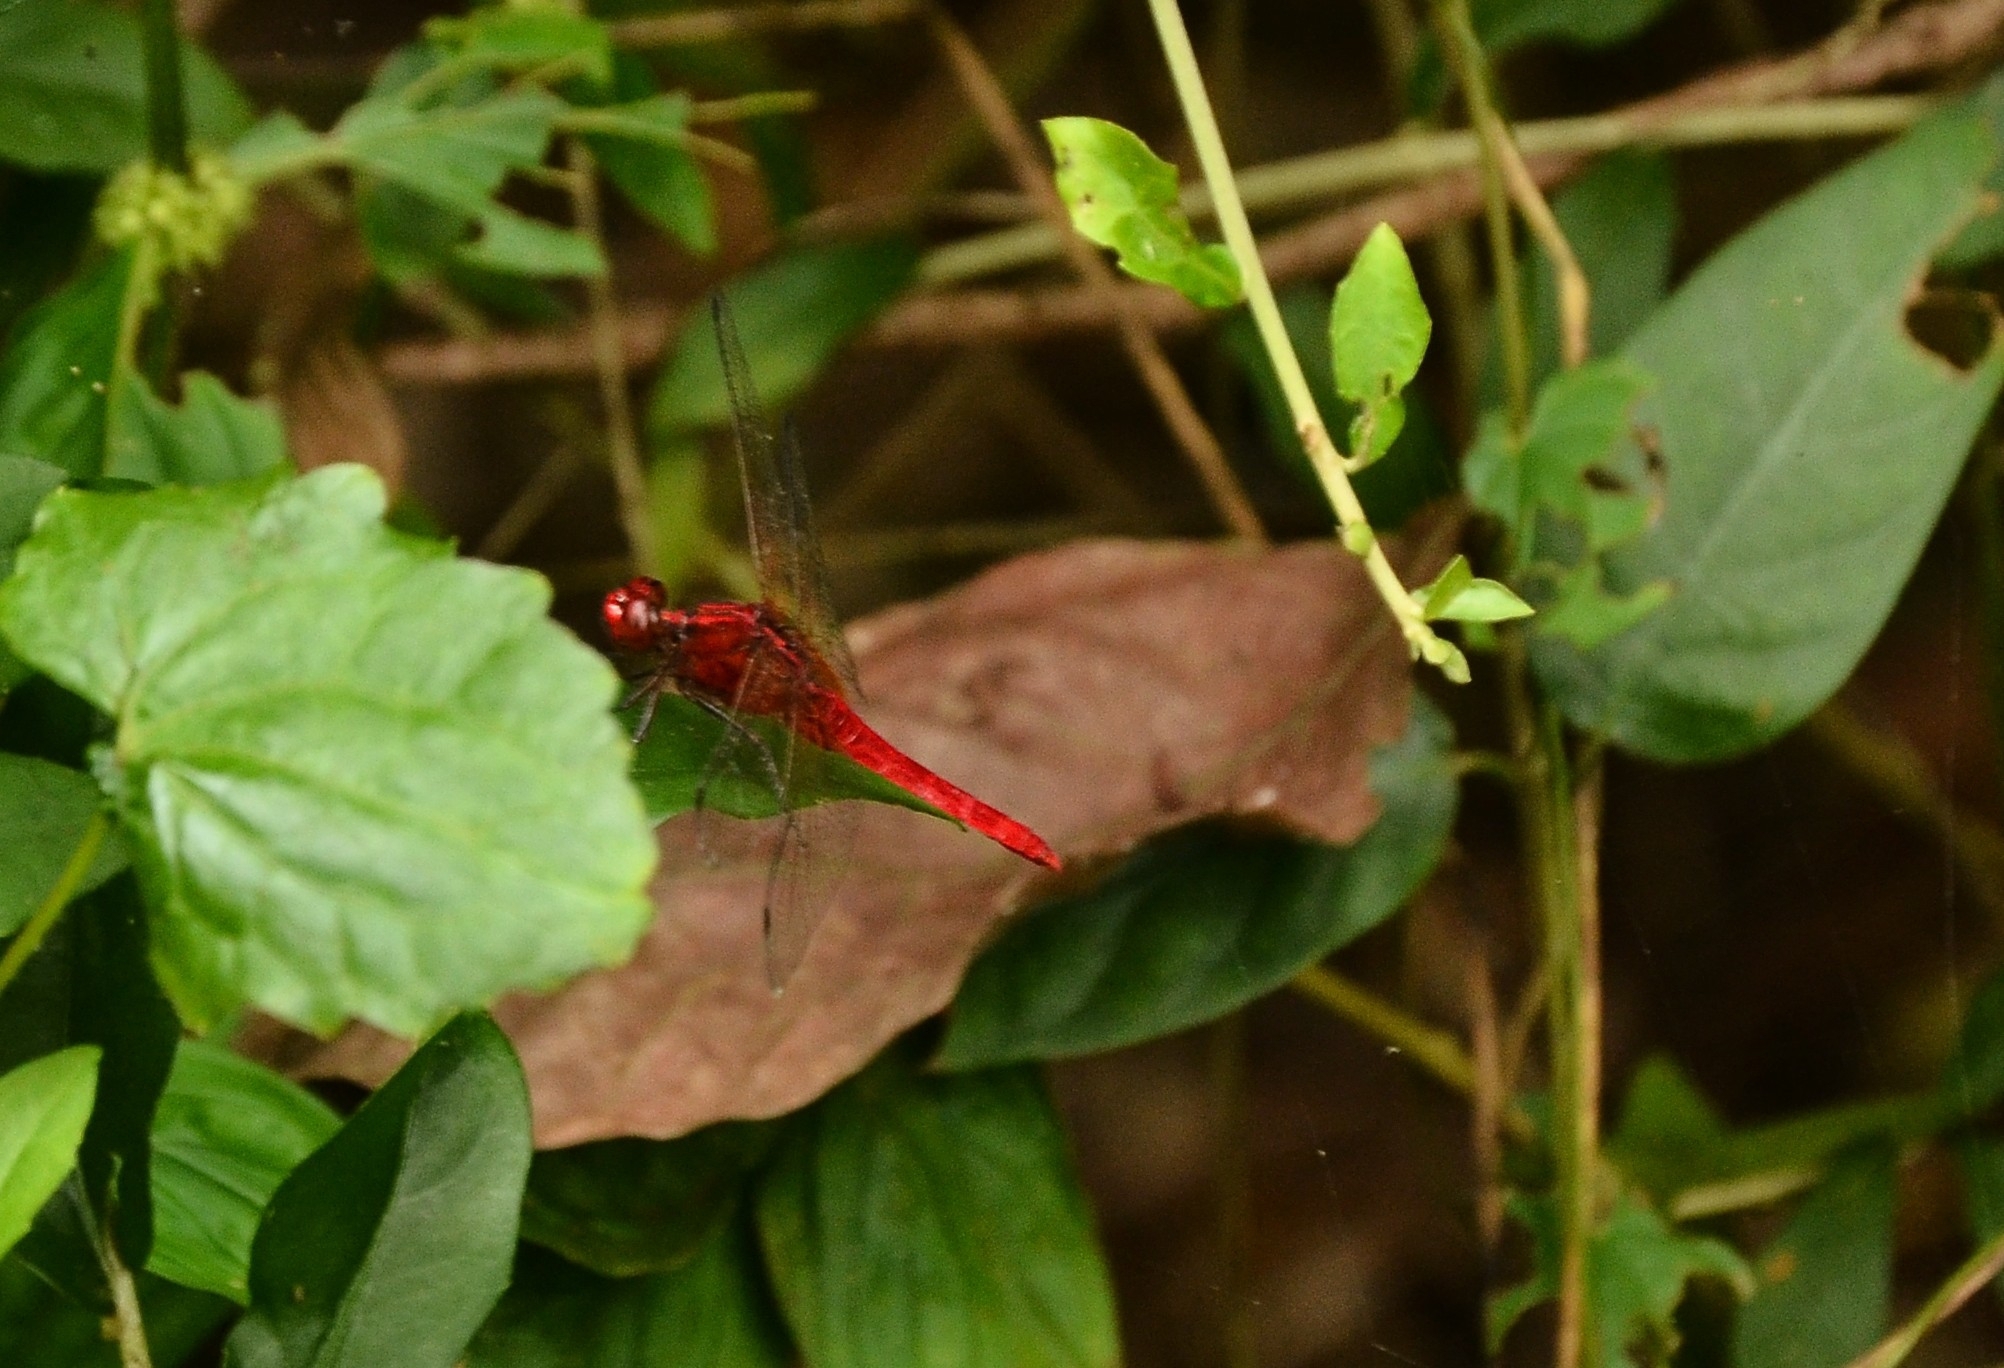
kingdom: Animalia
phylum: Arthropoda
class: Insecta
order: Odonata
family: Libellulidae
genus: Rhodothemis
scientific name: Rhodothemis rufa
